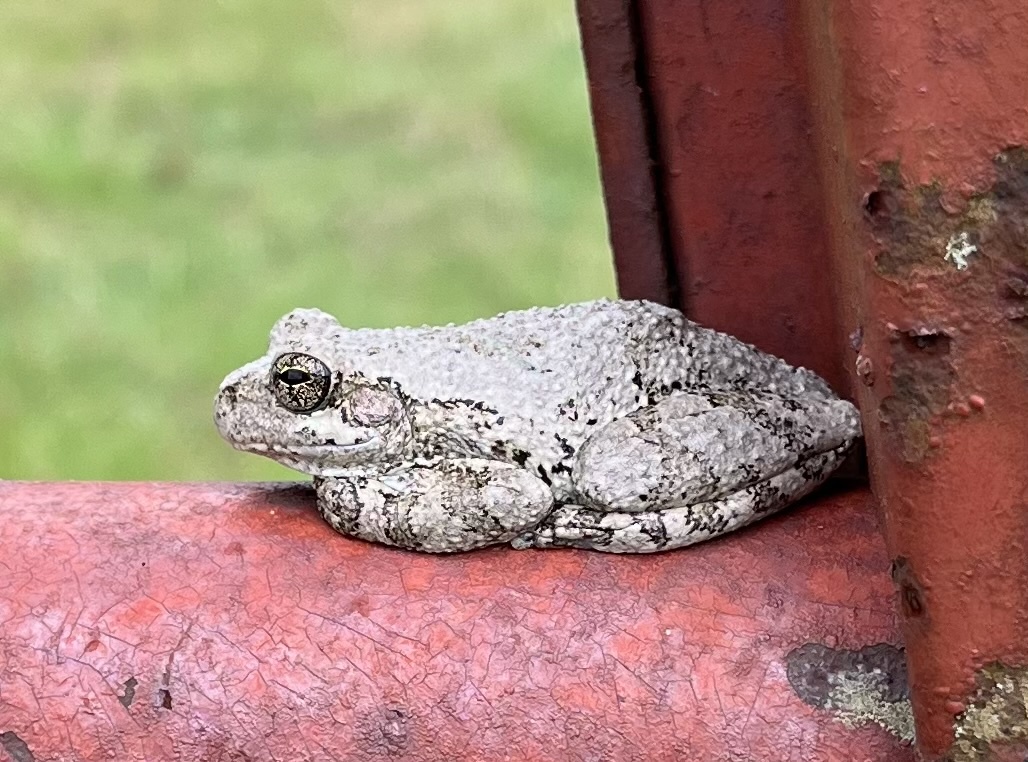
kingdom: Animalia
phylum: Chordata
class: Amphibia
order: Anura
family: Hylidae
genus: Dryophytes
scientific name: Dryophytes chrysoscelis
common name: Cope's gray treefrog
